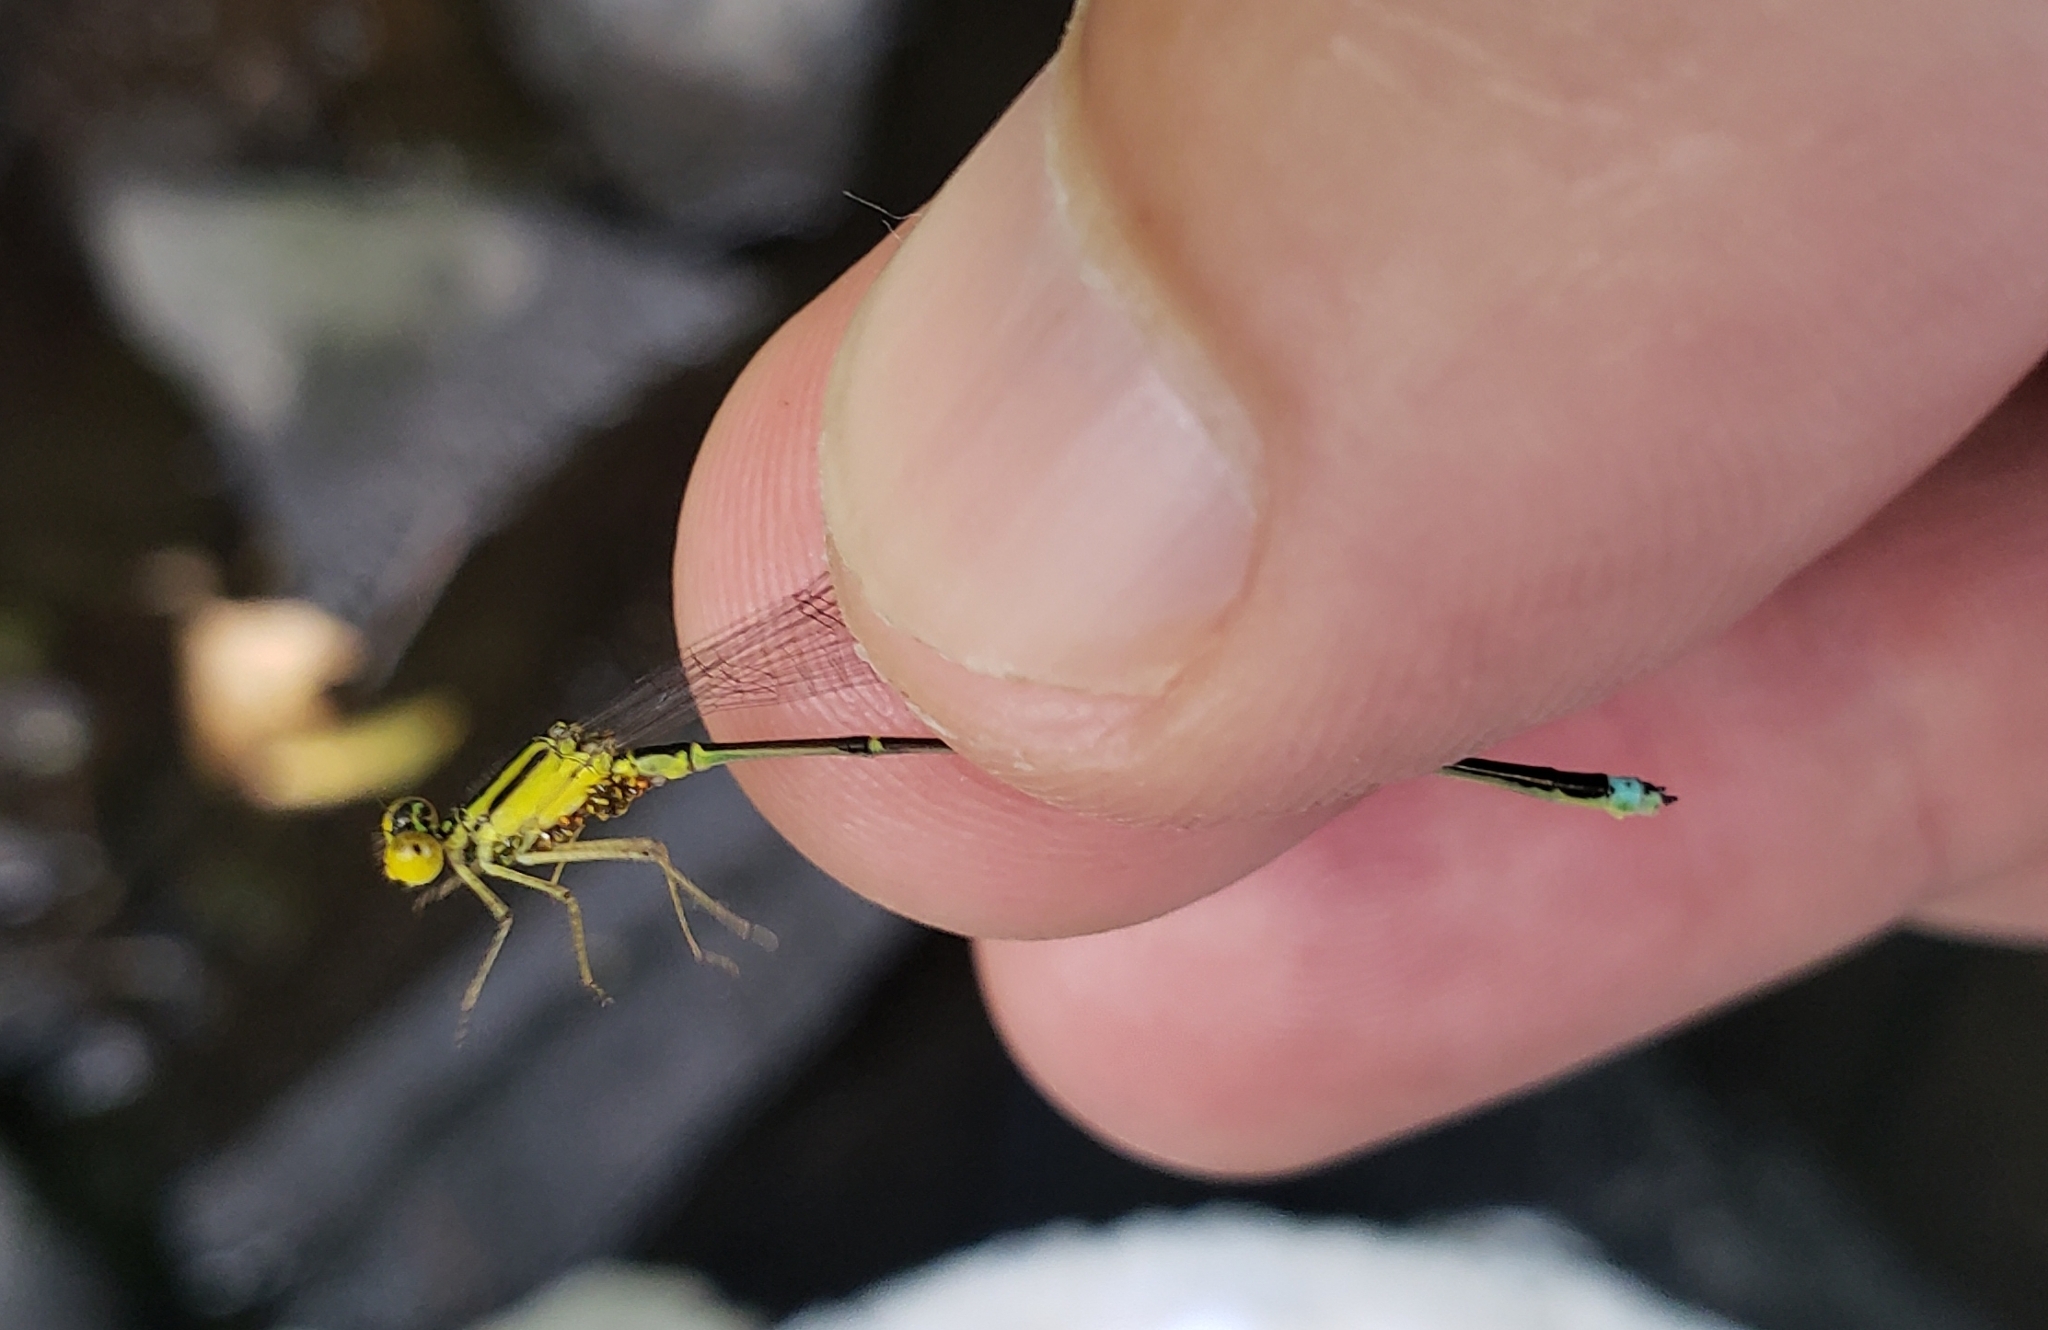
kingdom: Animalia
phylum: Arthropoda
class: Insecta
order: Odonata
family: Coenagrionidae
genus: Enallagma
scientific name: Enallagma vesperum
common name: Vesper bluet
